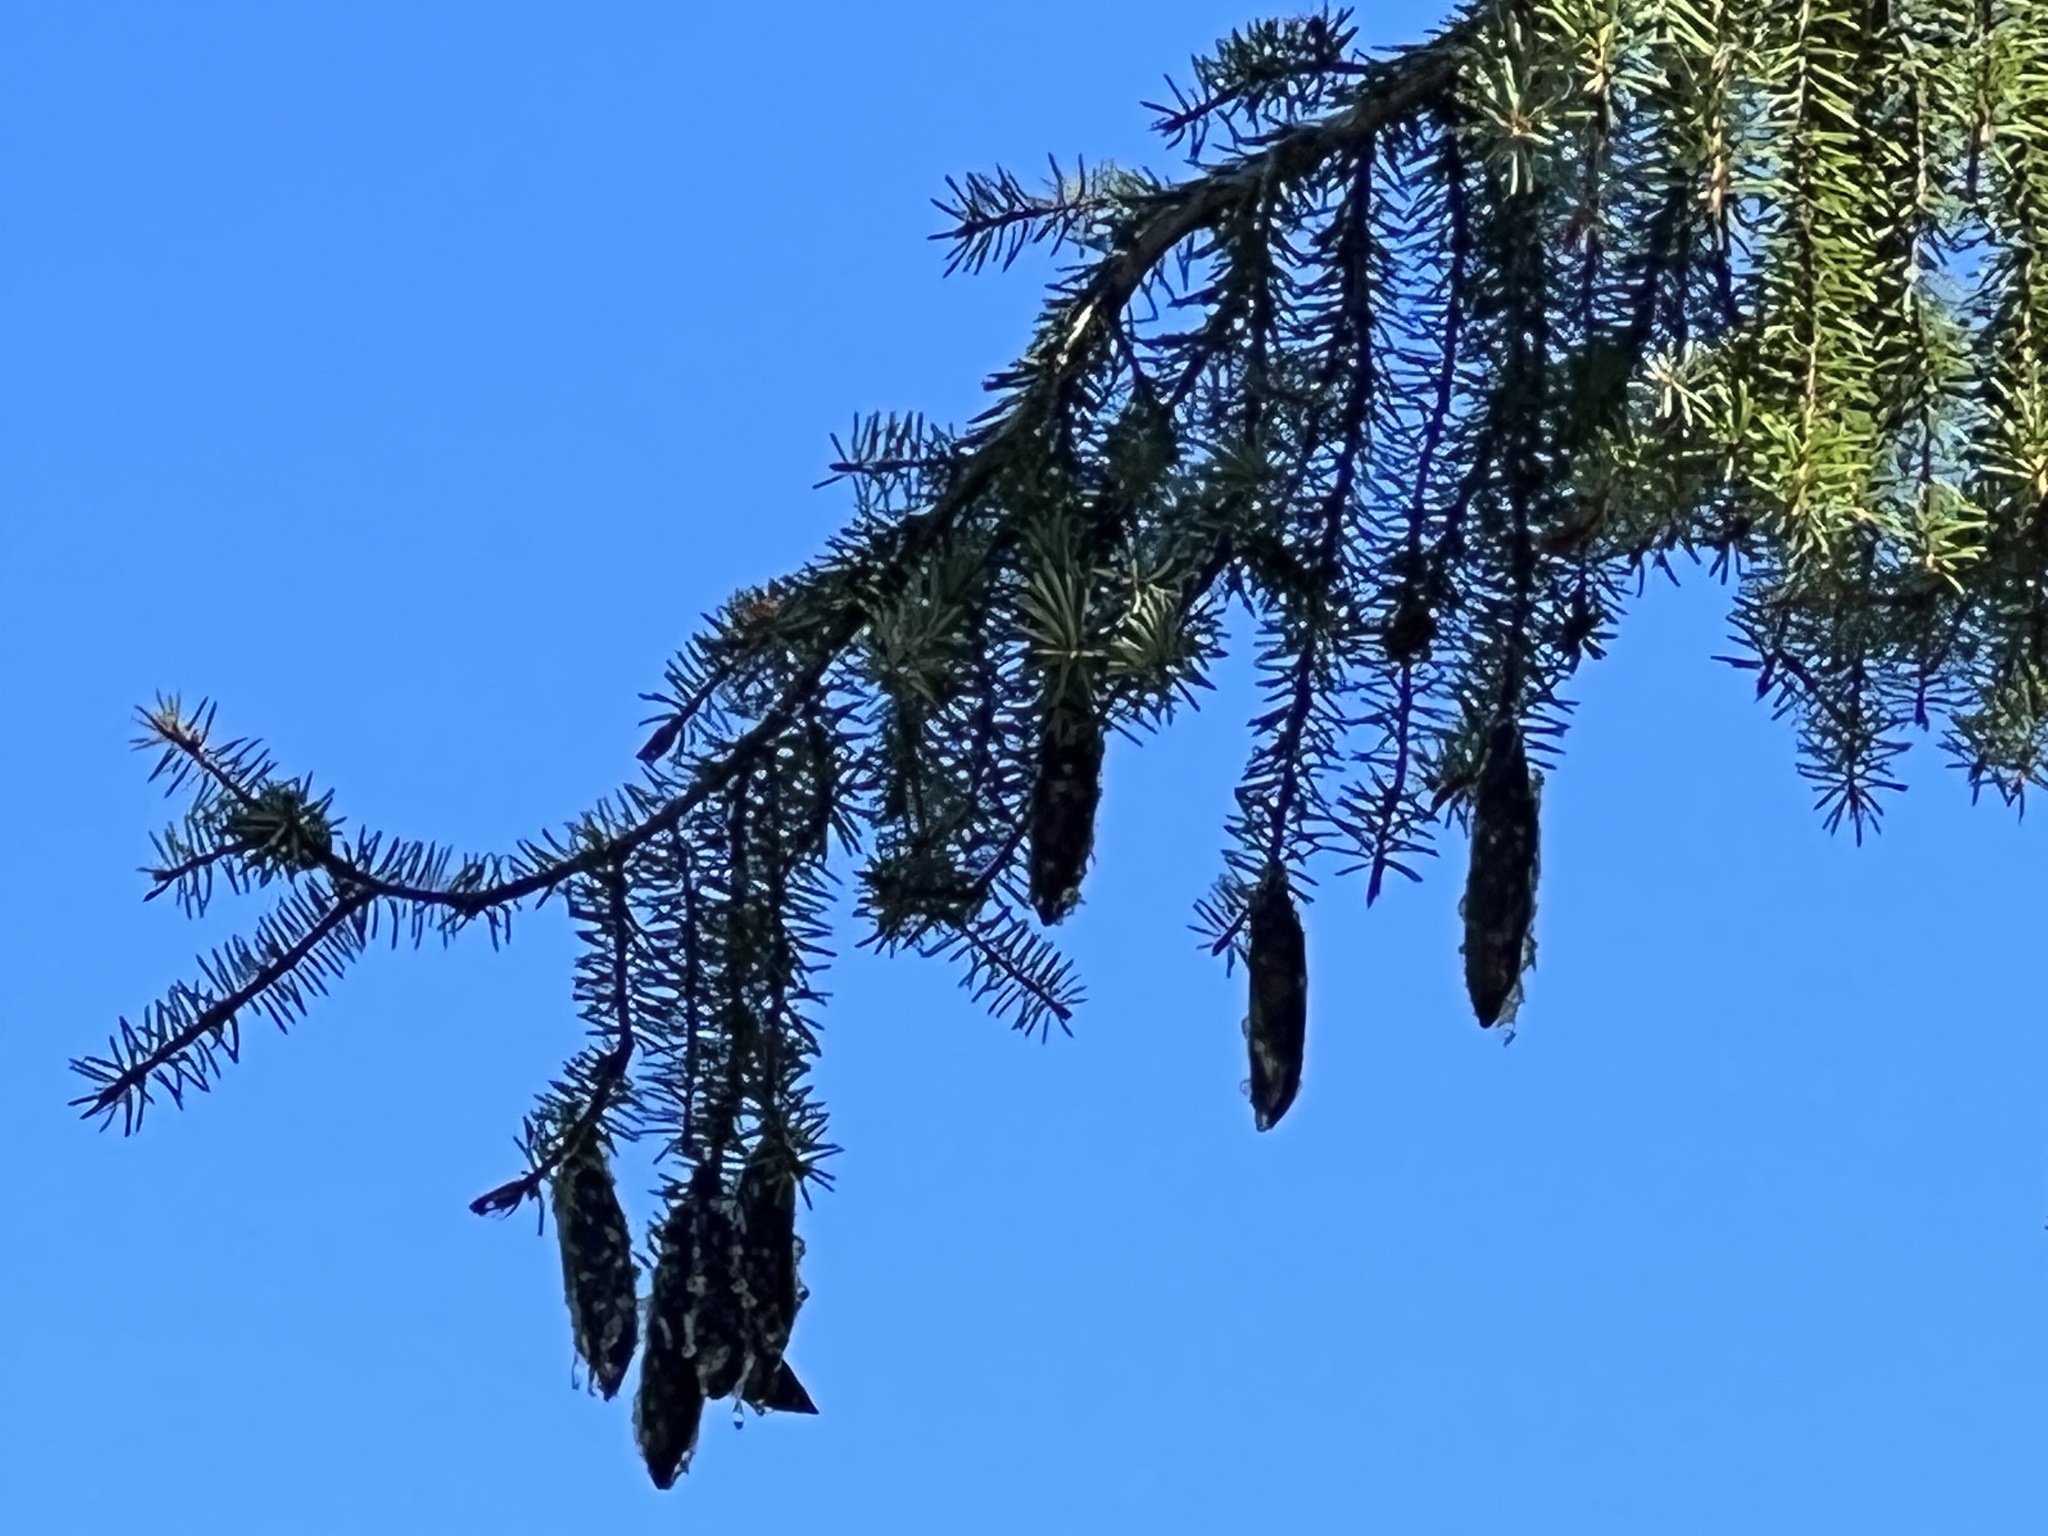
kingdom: Plantae
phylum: Tracheophyta
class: Pinopsida
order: Pinales
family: Pinaceae
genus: Picea
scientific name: Picea breweriana
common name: Brewer's spruce
